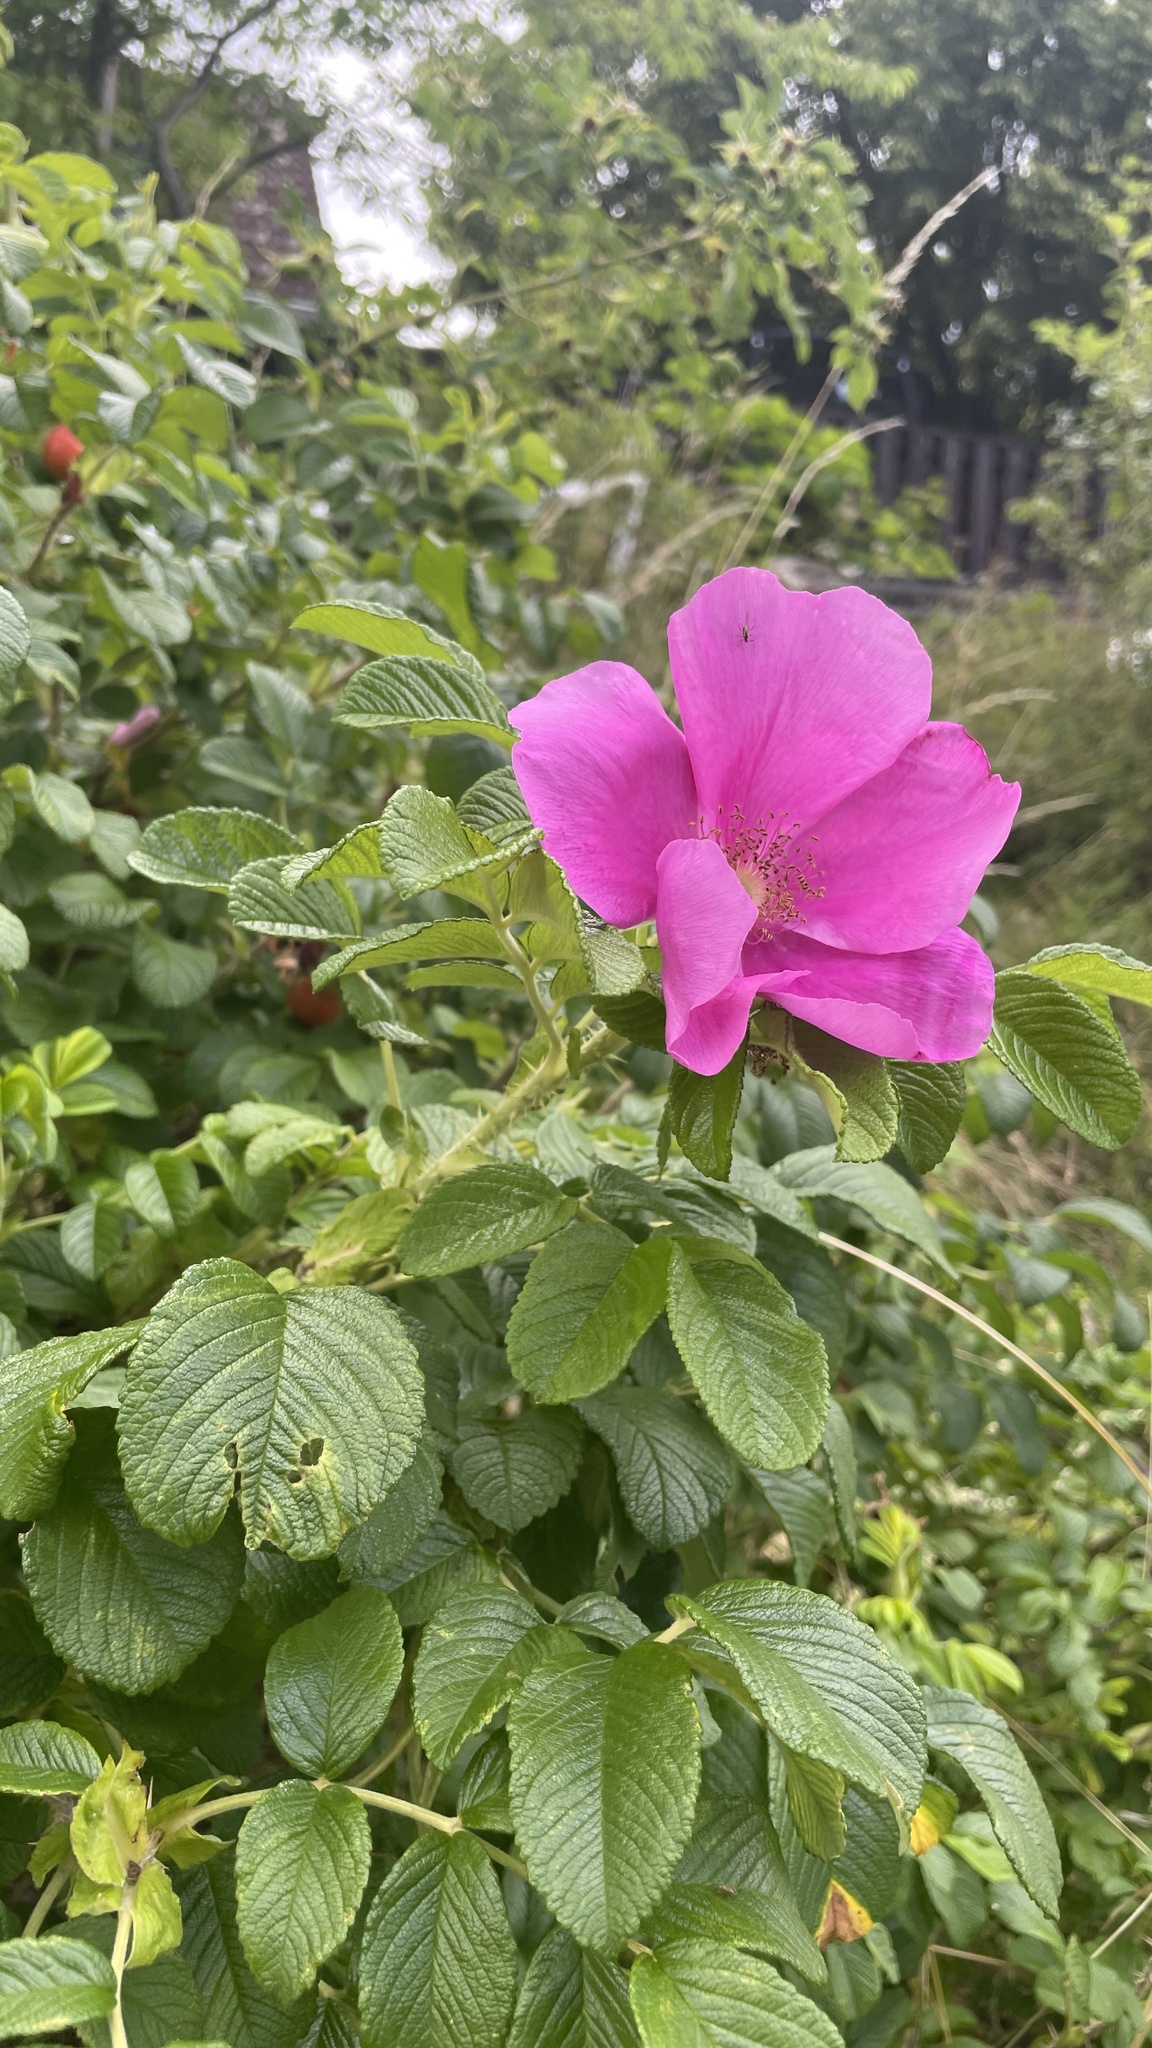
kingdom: Plantae
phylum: Tracheophyta
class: Magnoliopsida
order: Rosales
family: Rosaceae
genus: Rosa
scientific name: Rosa rugosa
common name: Japanese rose
